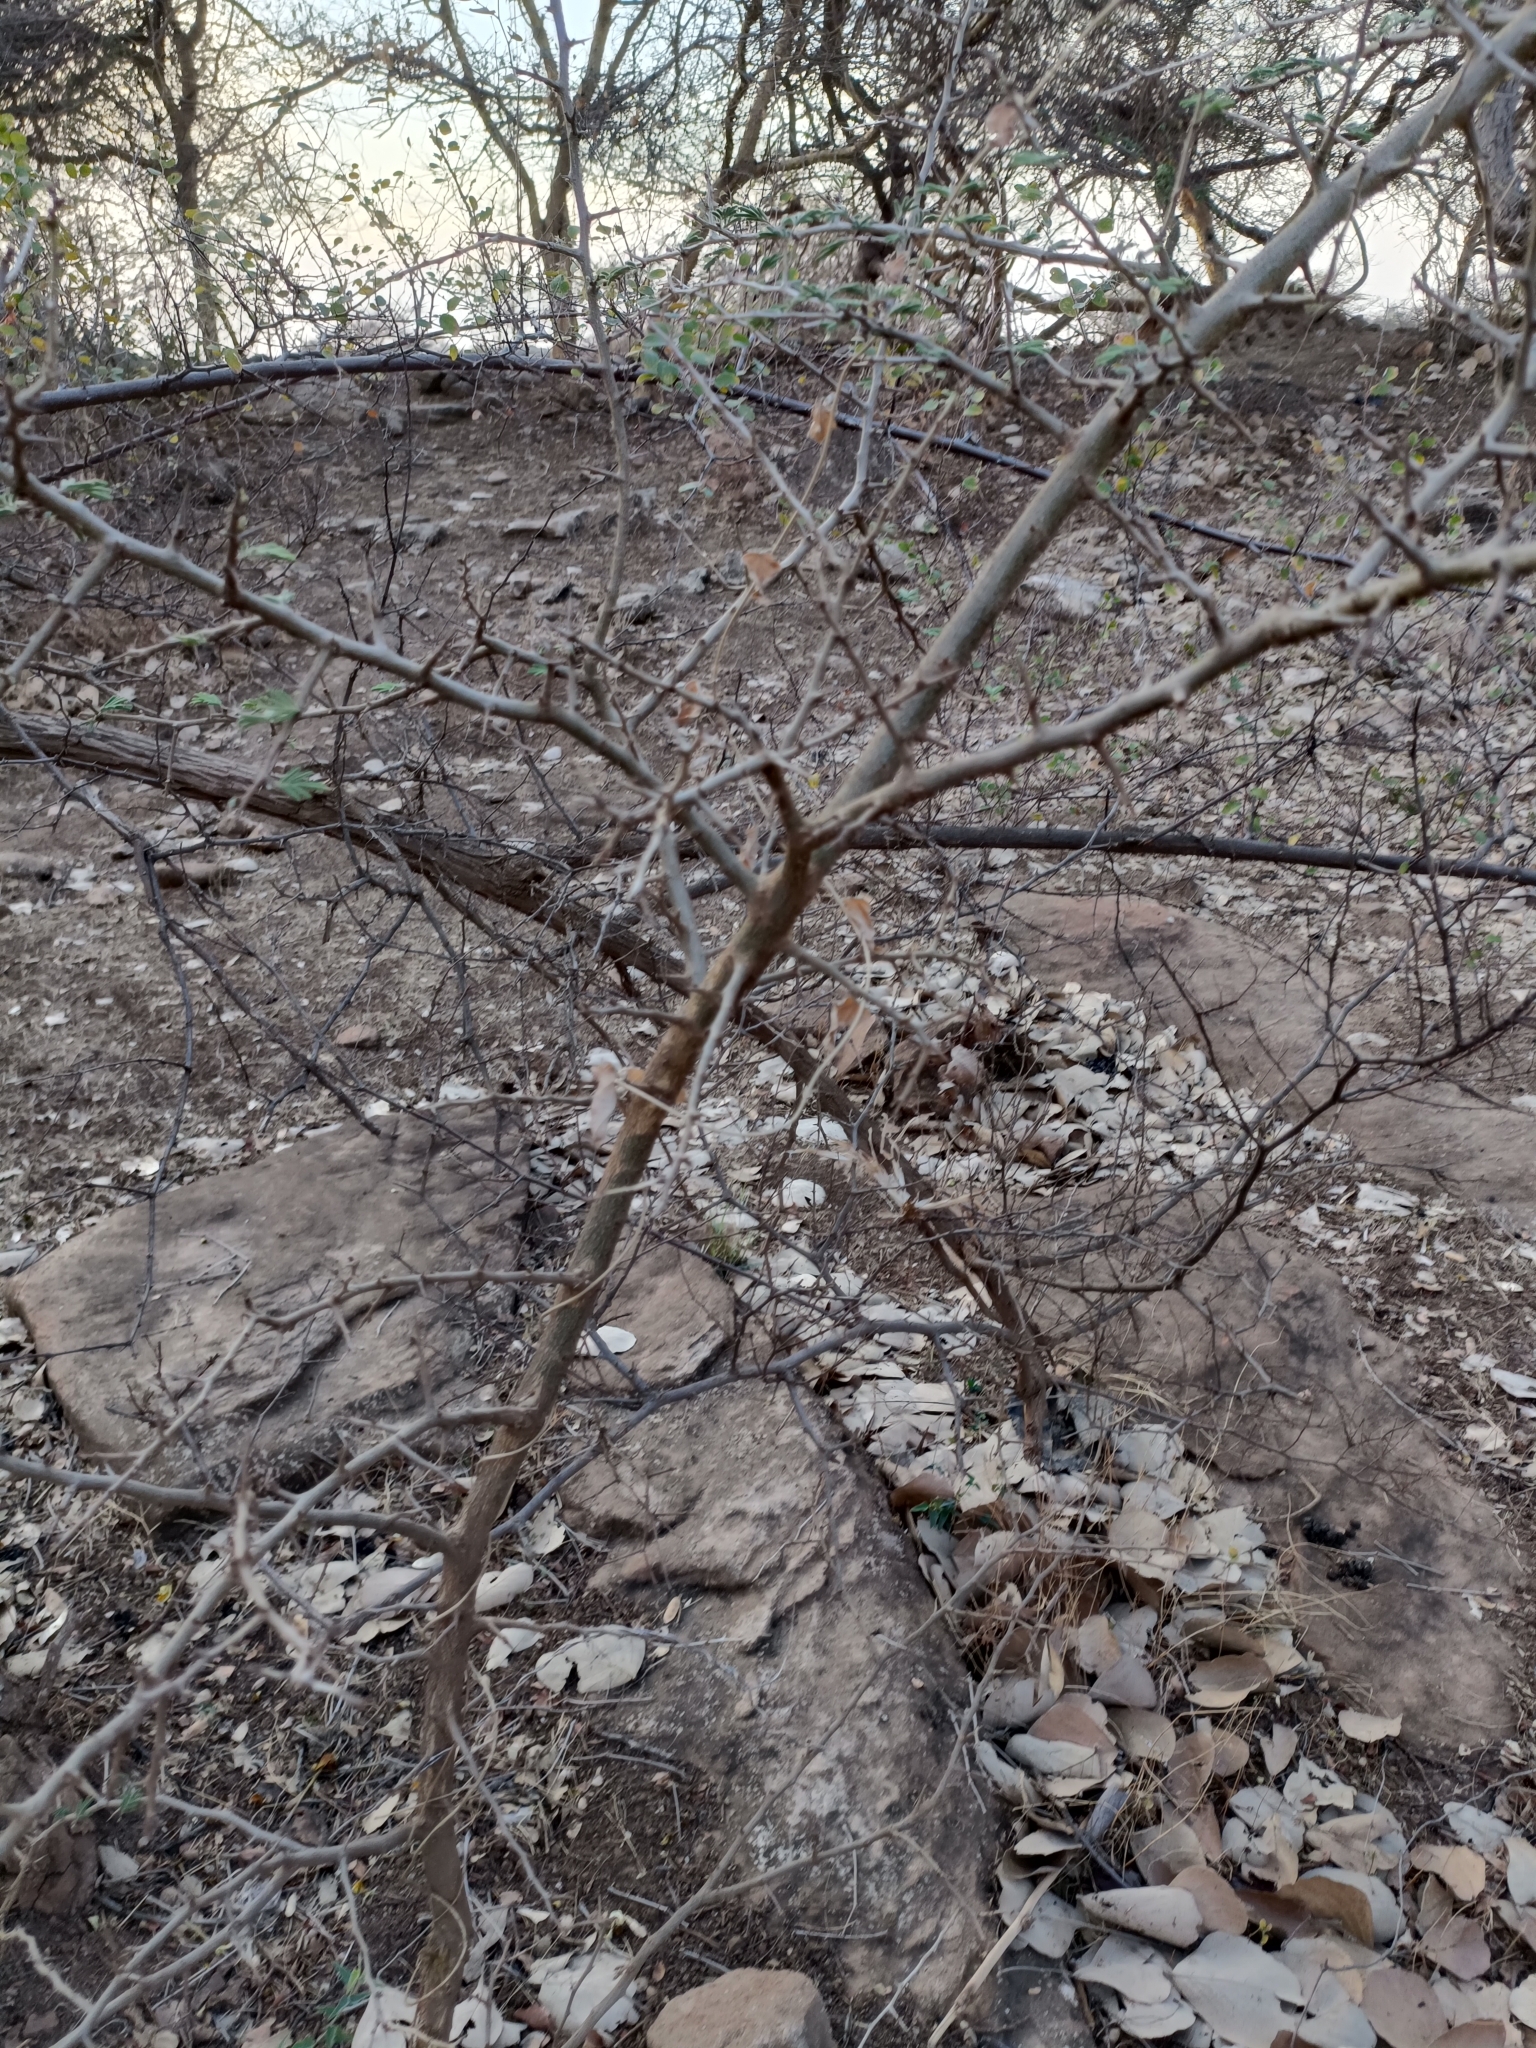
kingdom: Plantae
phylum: Tracheophyta
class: Magnoliopsida
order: Fabales
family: Fabaceae
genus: Dichrostachys
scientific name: Dichrostachys cinerea
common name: Sicklebush
